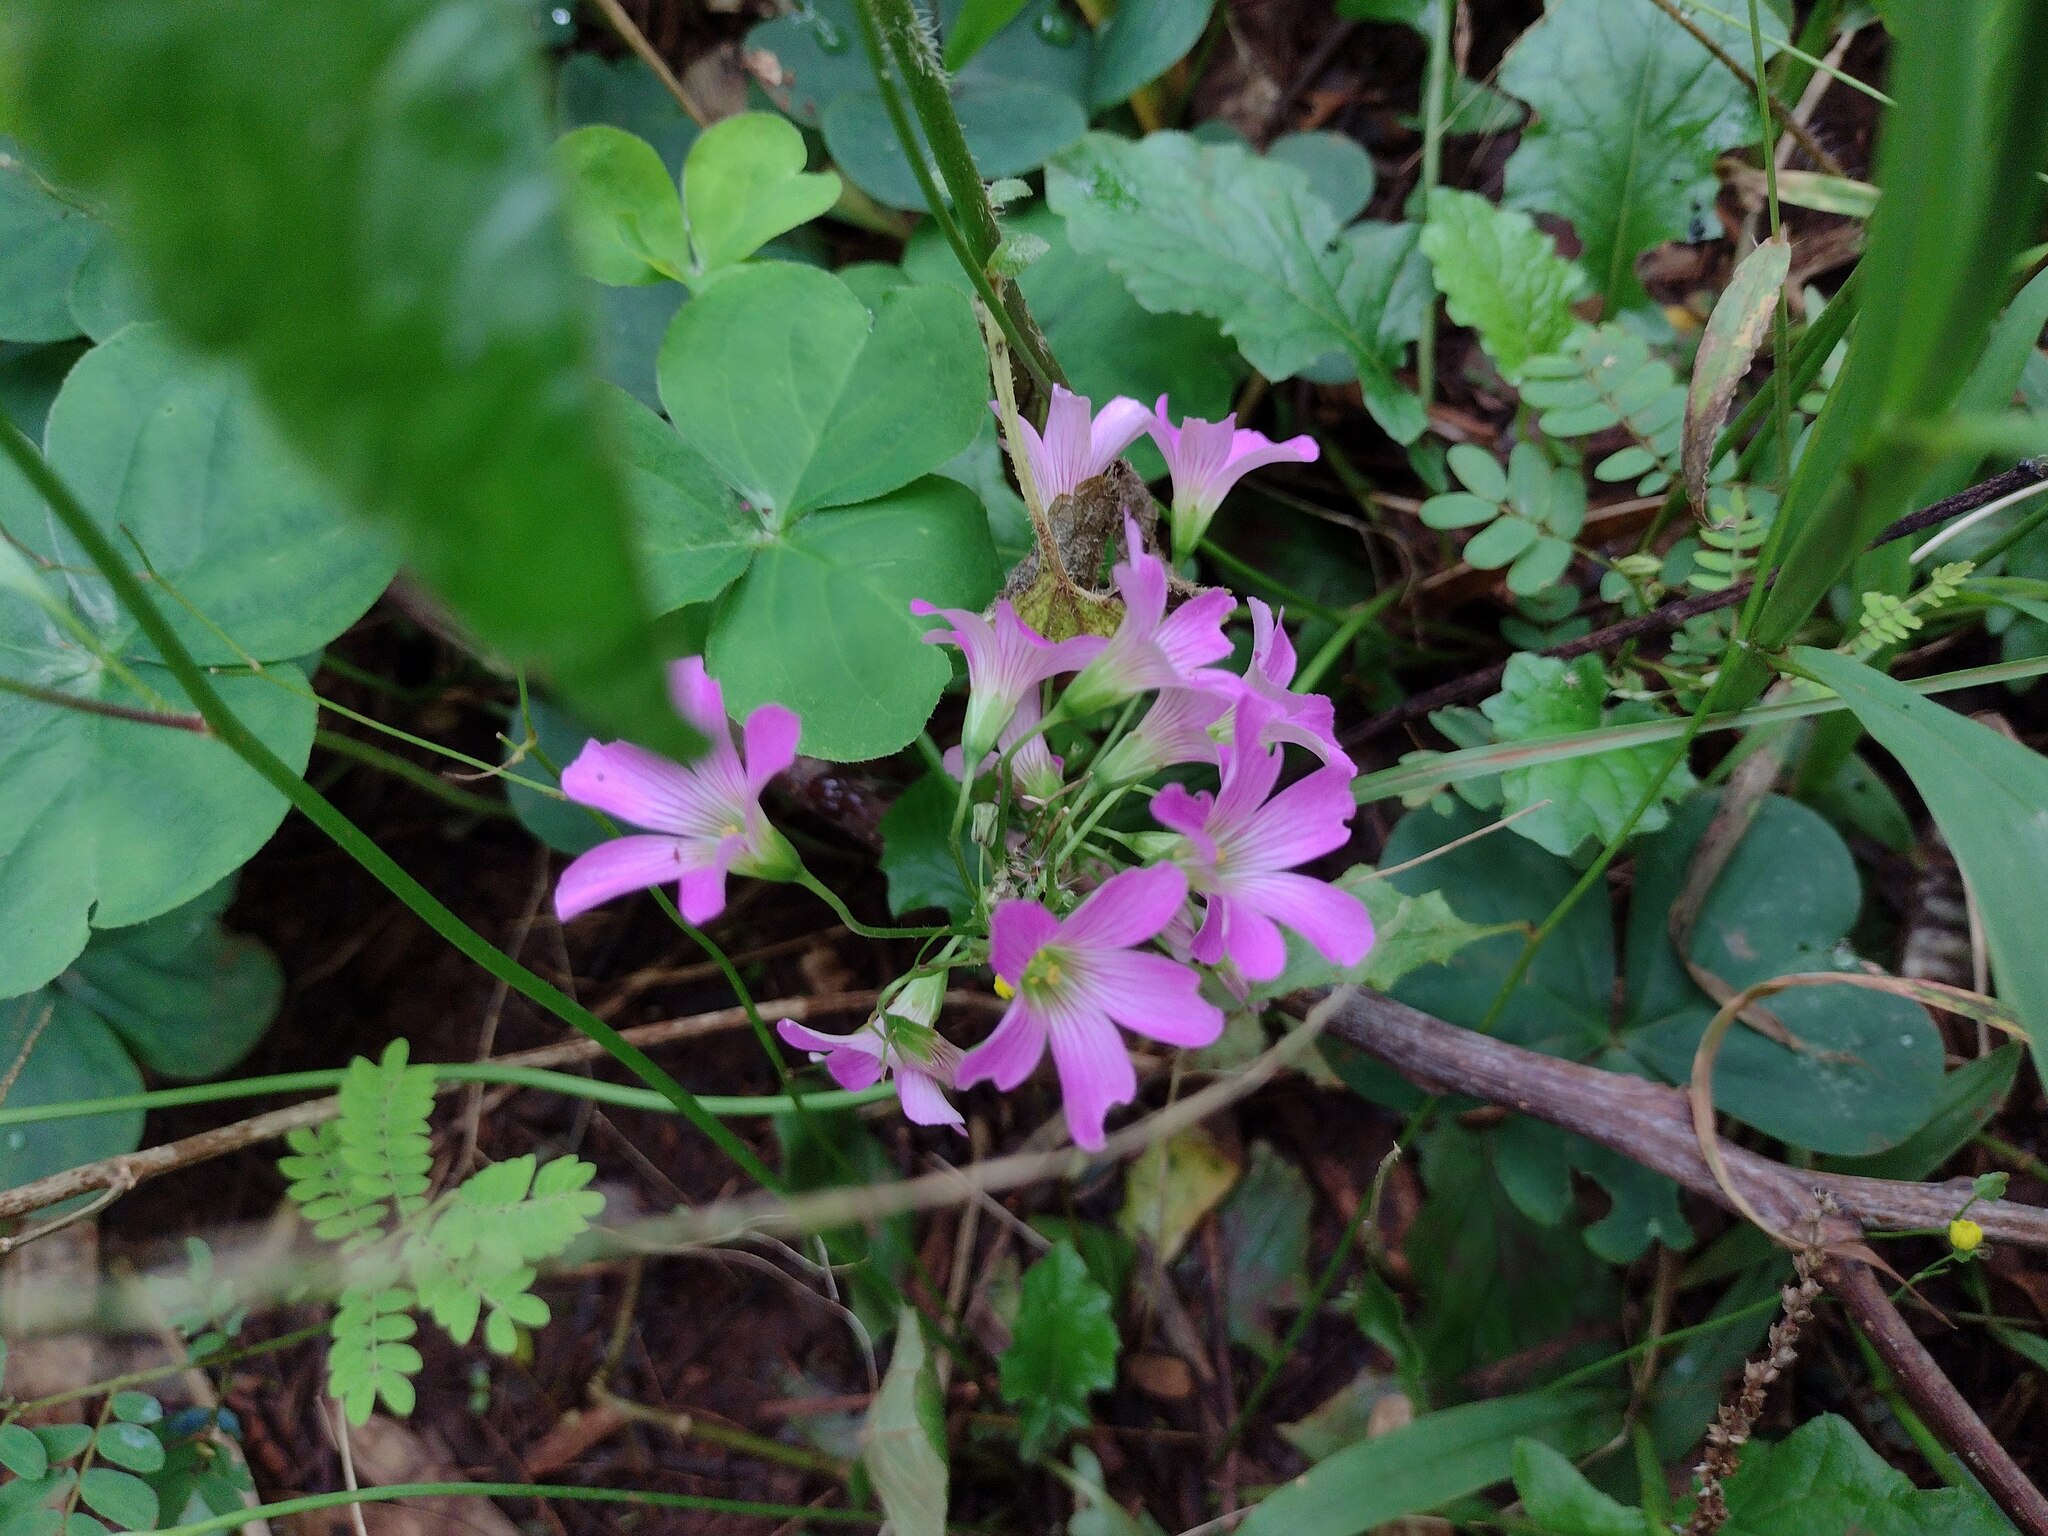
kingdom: Plantae
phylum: Tracheophyta
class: Magnoliopsida
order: Oxalidales
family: Oxalidaceae
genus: Oxalis
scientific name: Oxalis debilis
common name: Large-flowered pink-sorrel
